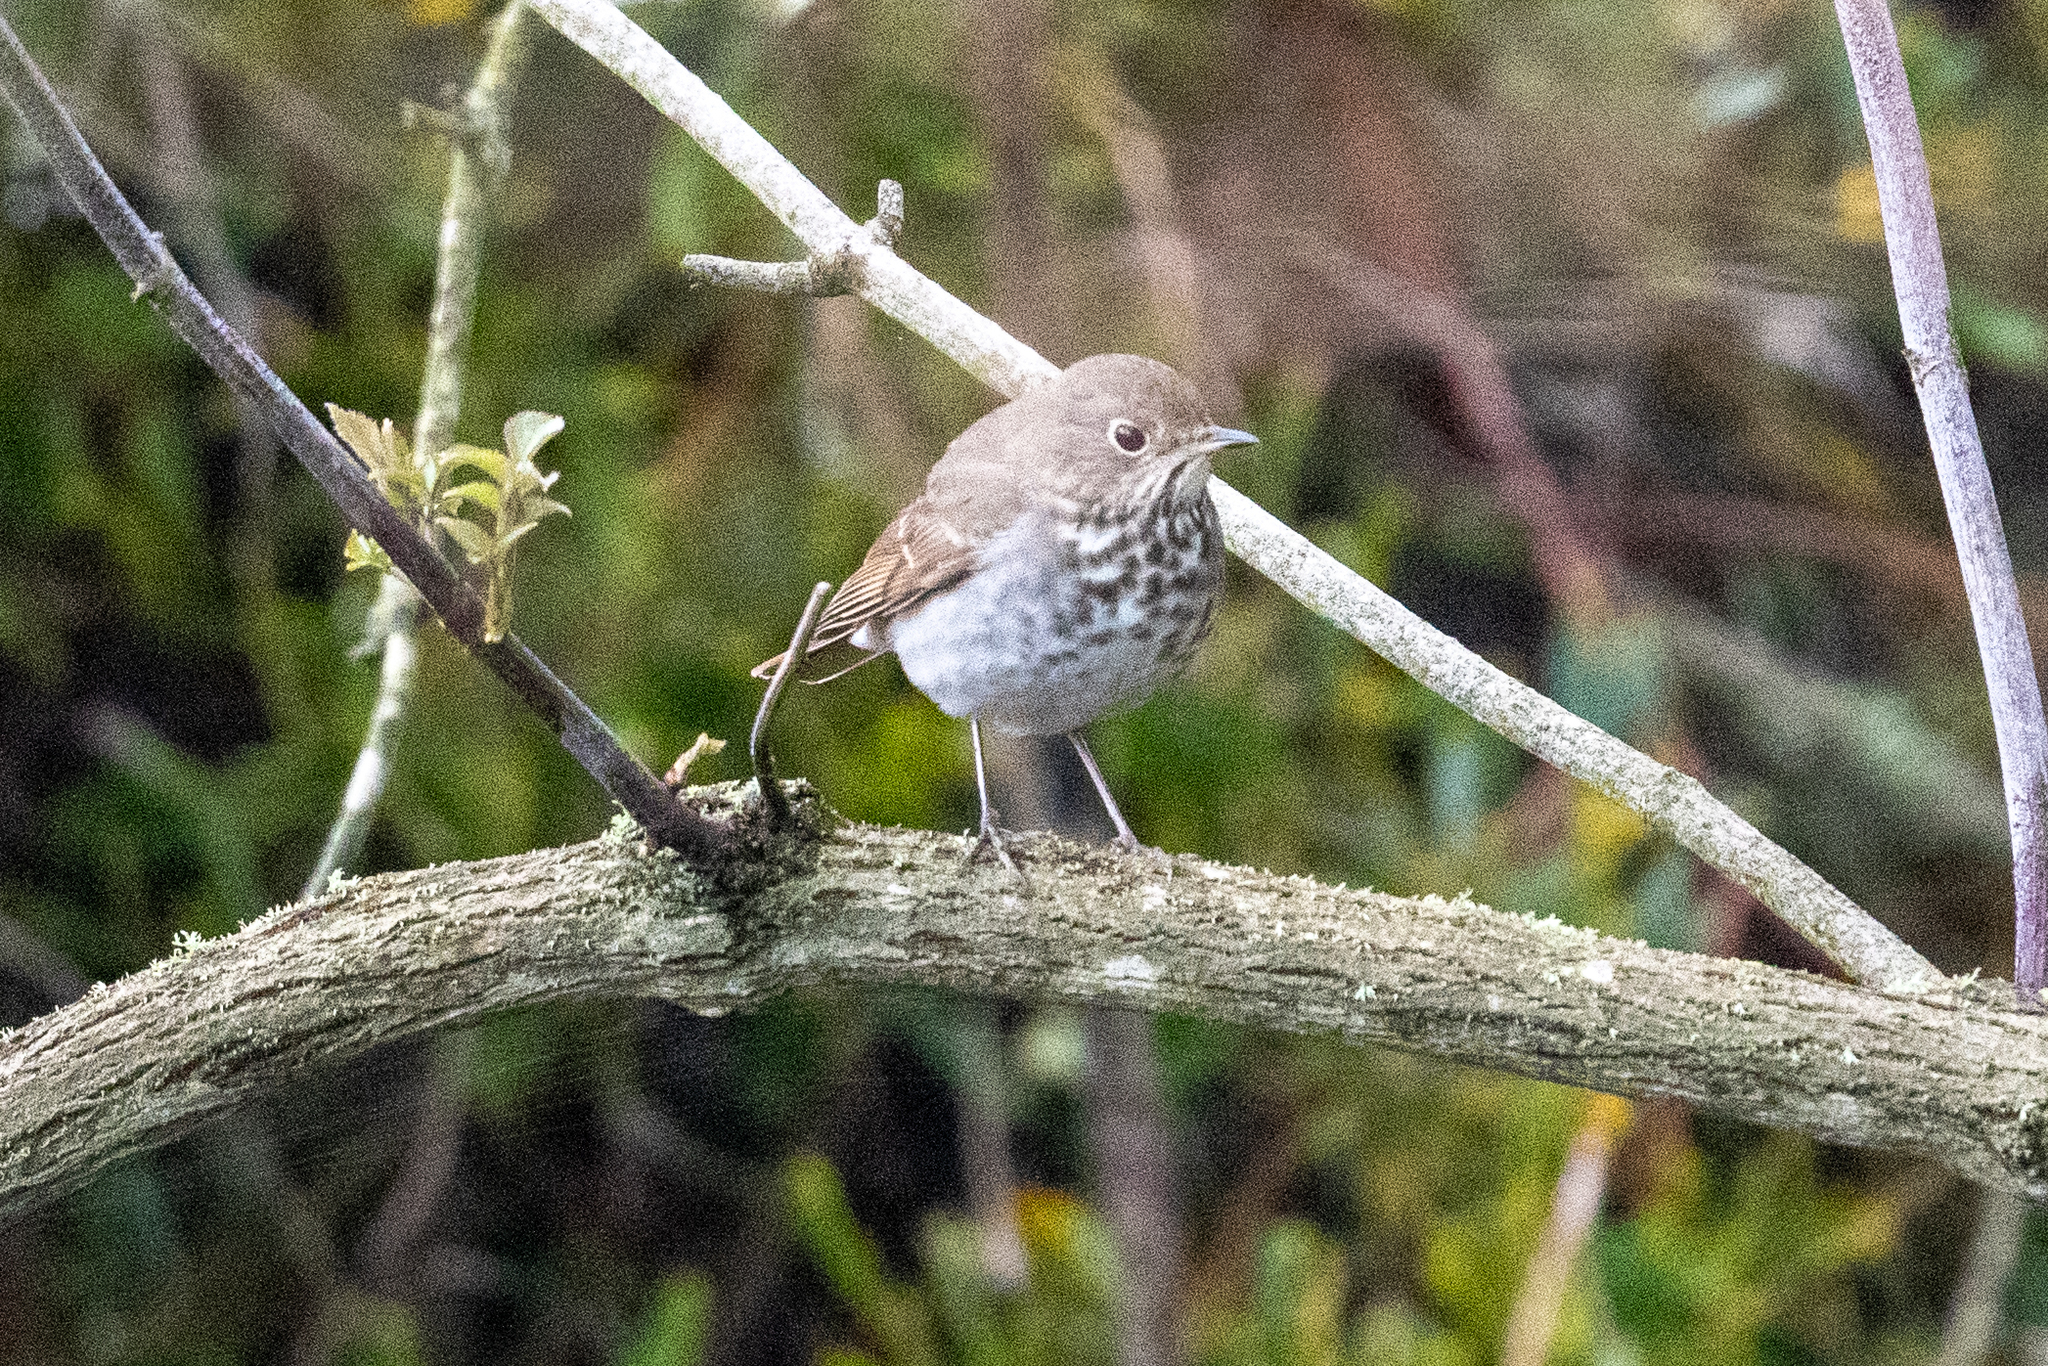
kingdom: Animalia
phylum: Chordata
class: Aves
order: Passeriformes
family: Turdidae
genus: Catharus
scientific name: Catharus guttatus
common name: Hermit thrush
